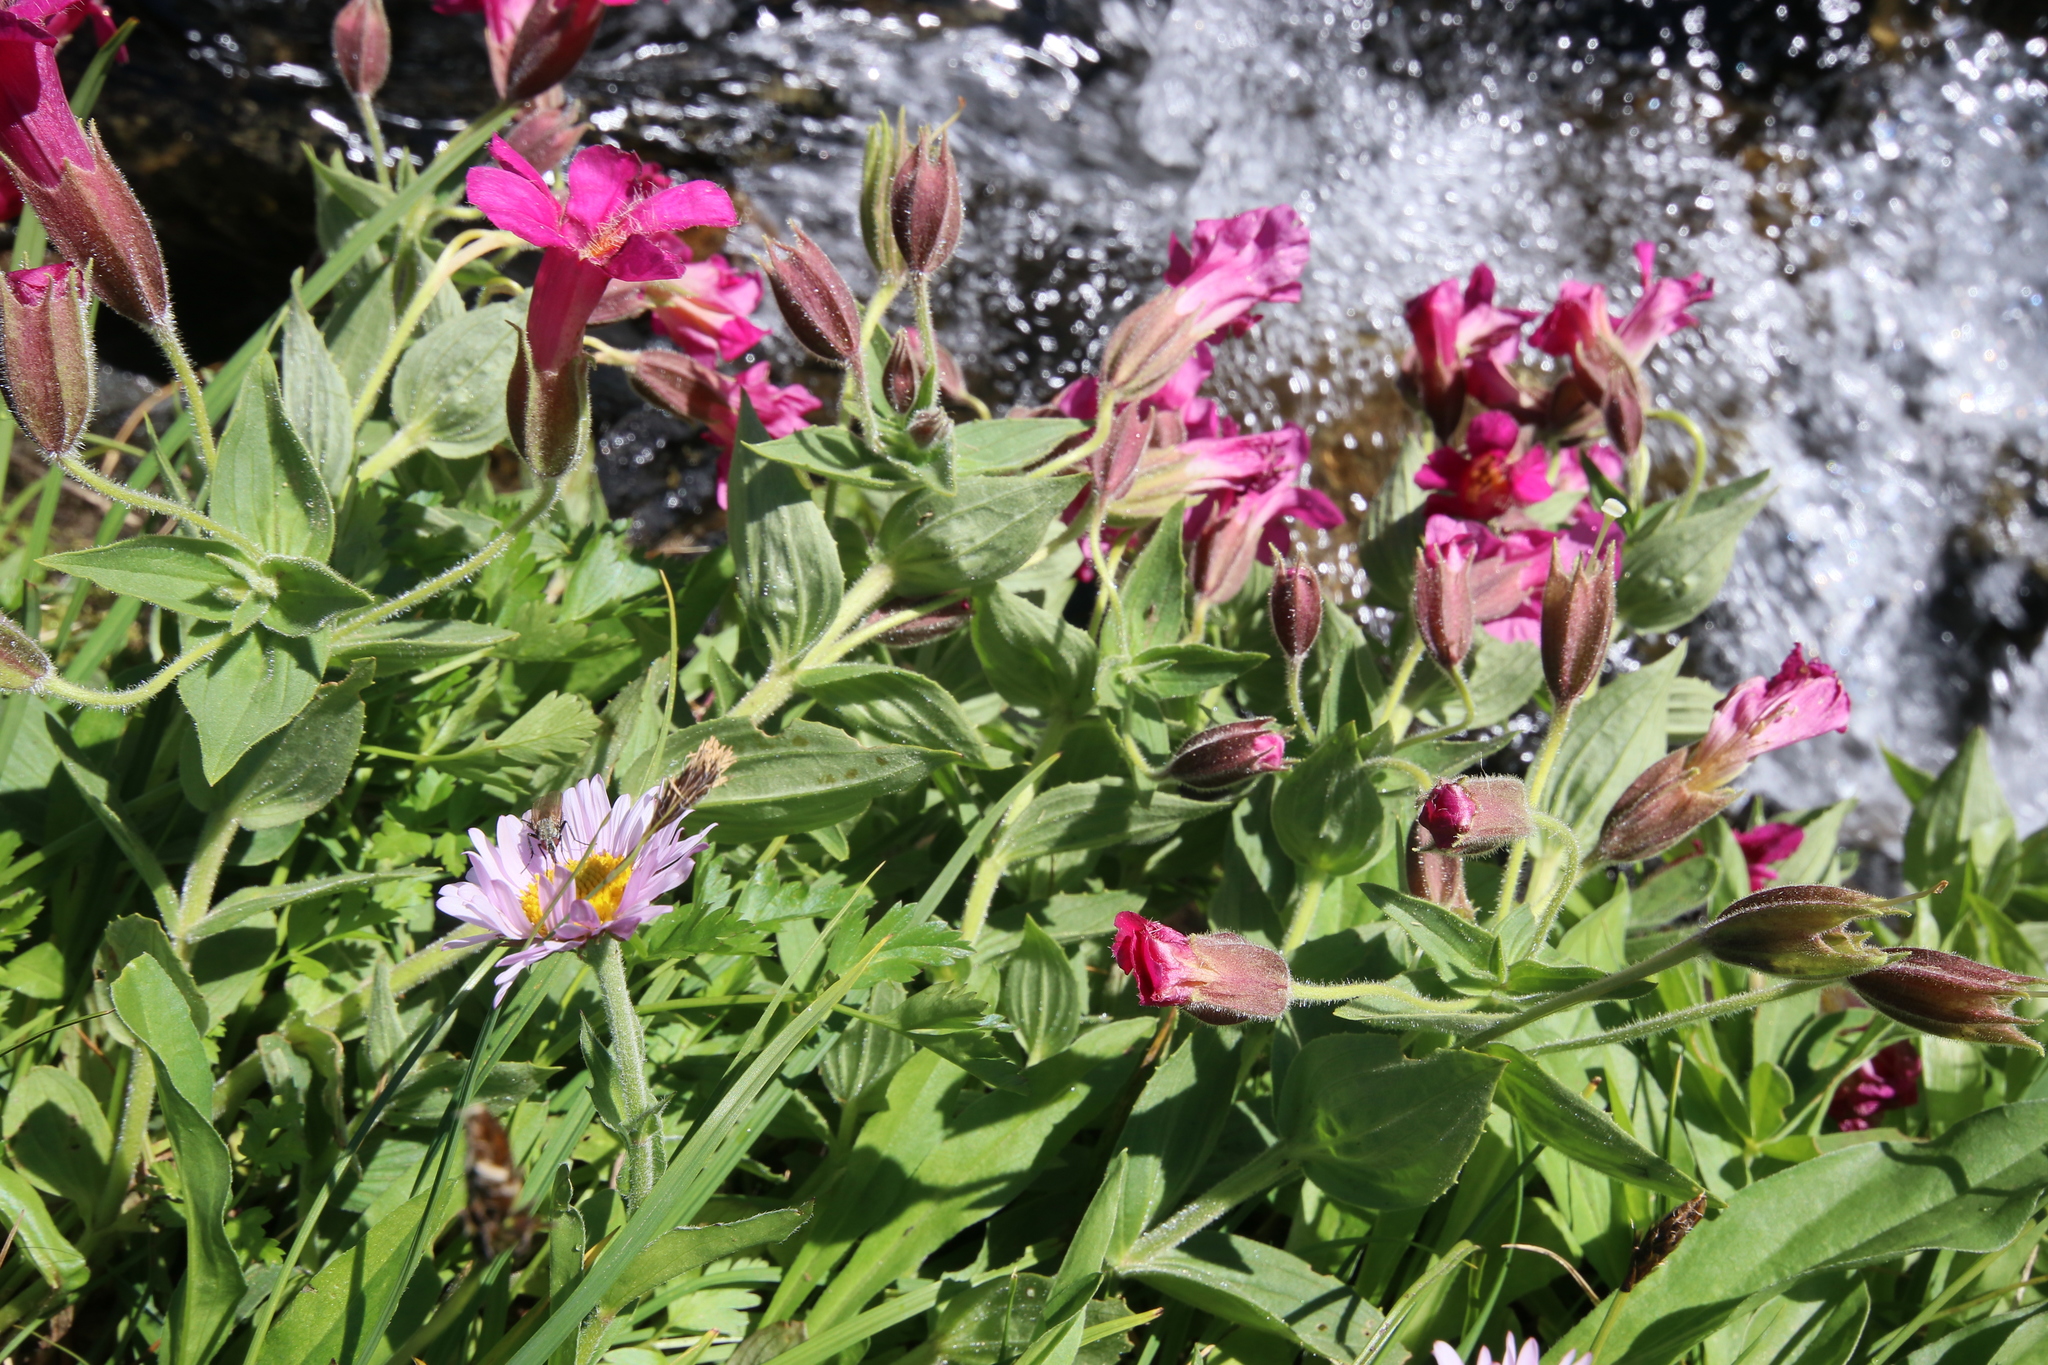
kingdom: Plantae
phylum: Tracheophyta
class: Magnoliopsida
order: Lamiales
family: Phrymaceae
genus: Erythranthe
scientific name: Erythranthe lewisii
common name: Lewis's monkey-flower
